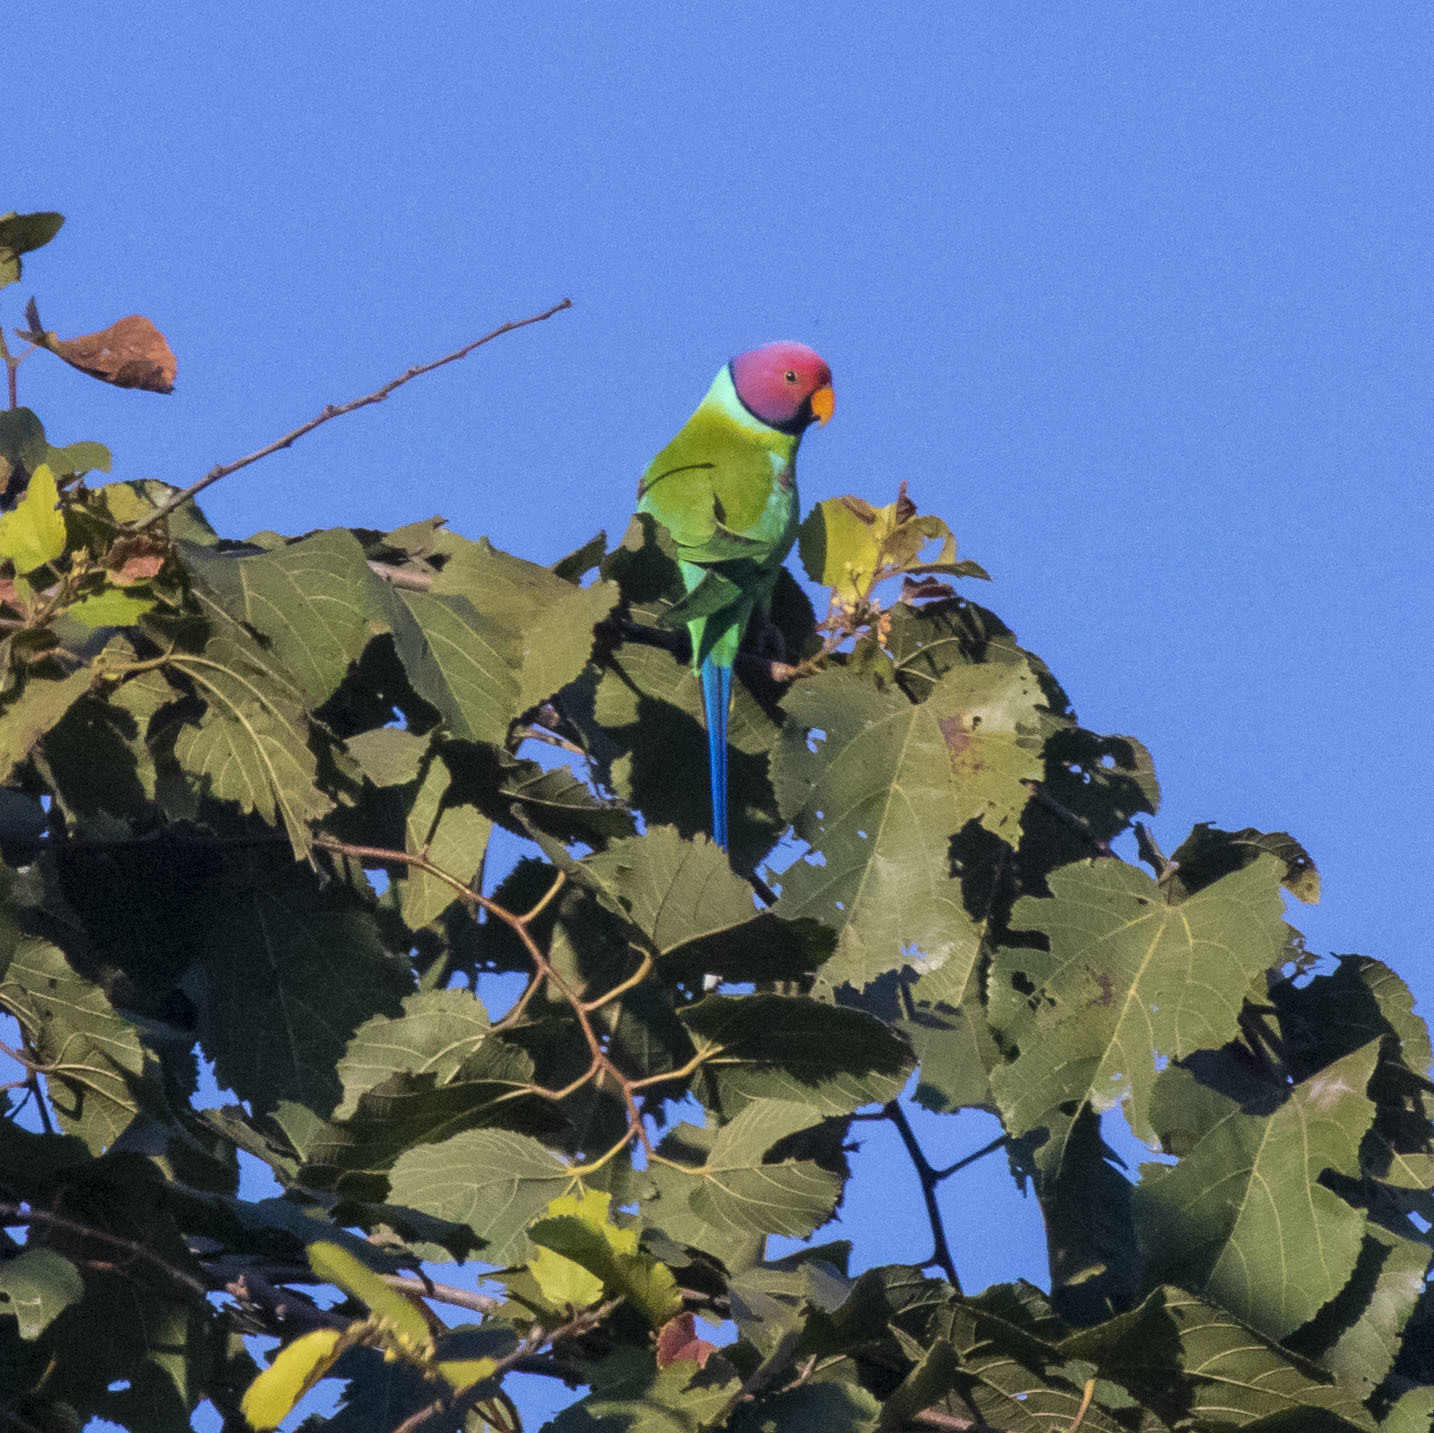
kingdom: Animalia
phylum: Chordata
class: Aves
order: Psittaciformes
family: Psittacidae
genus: Psittacula
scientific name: Psittacula cyanocephala
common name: Plum-headed parakeet
